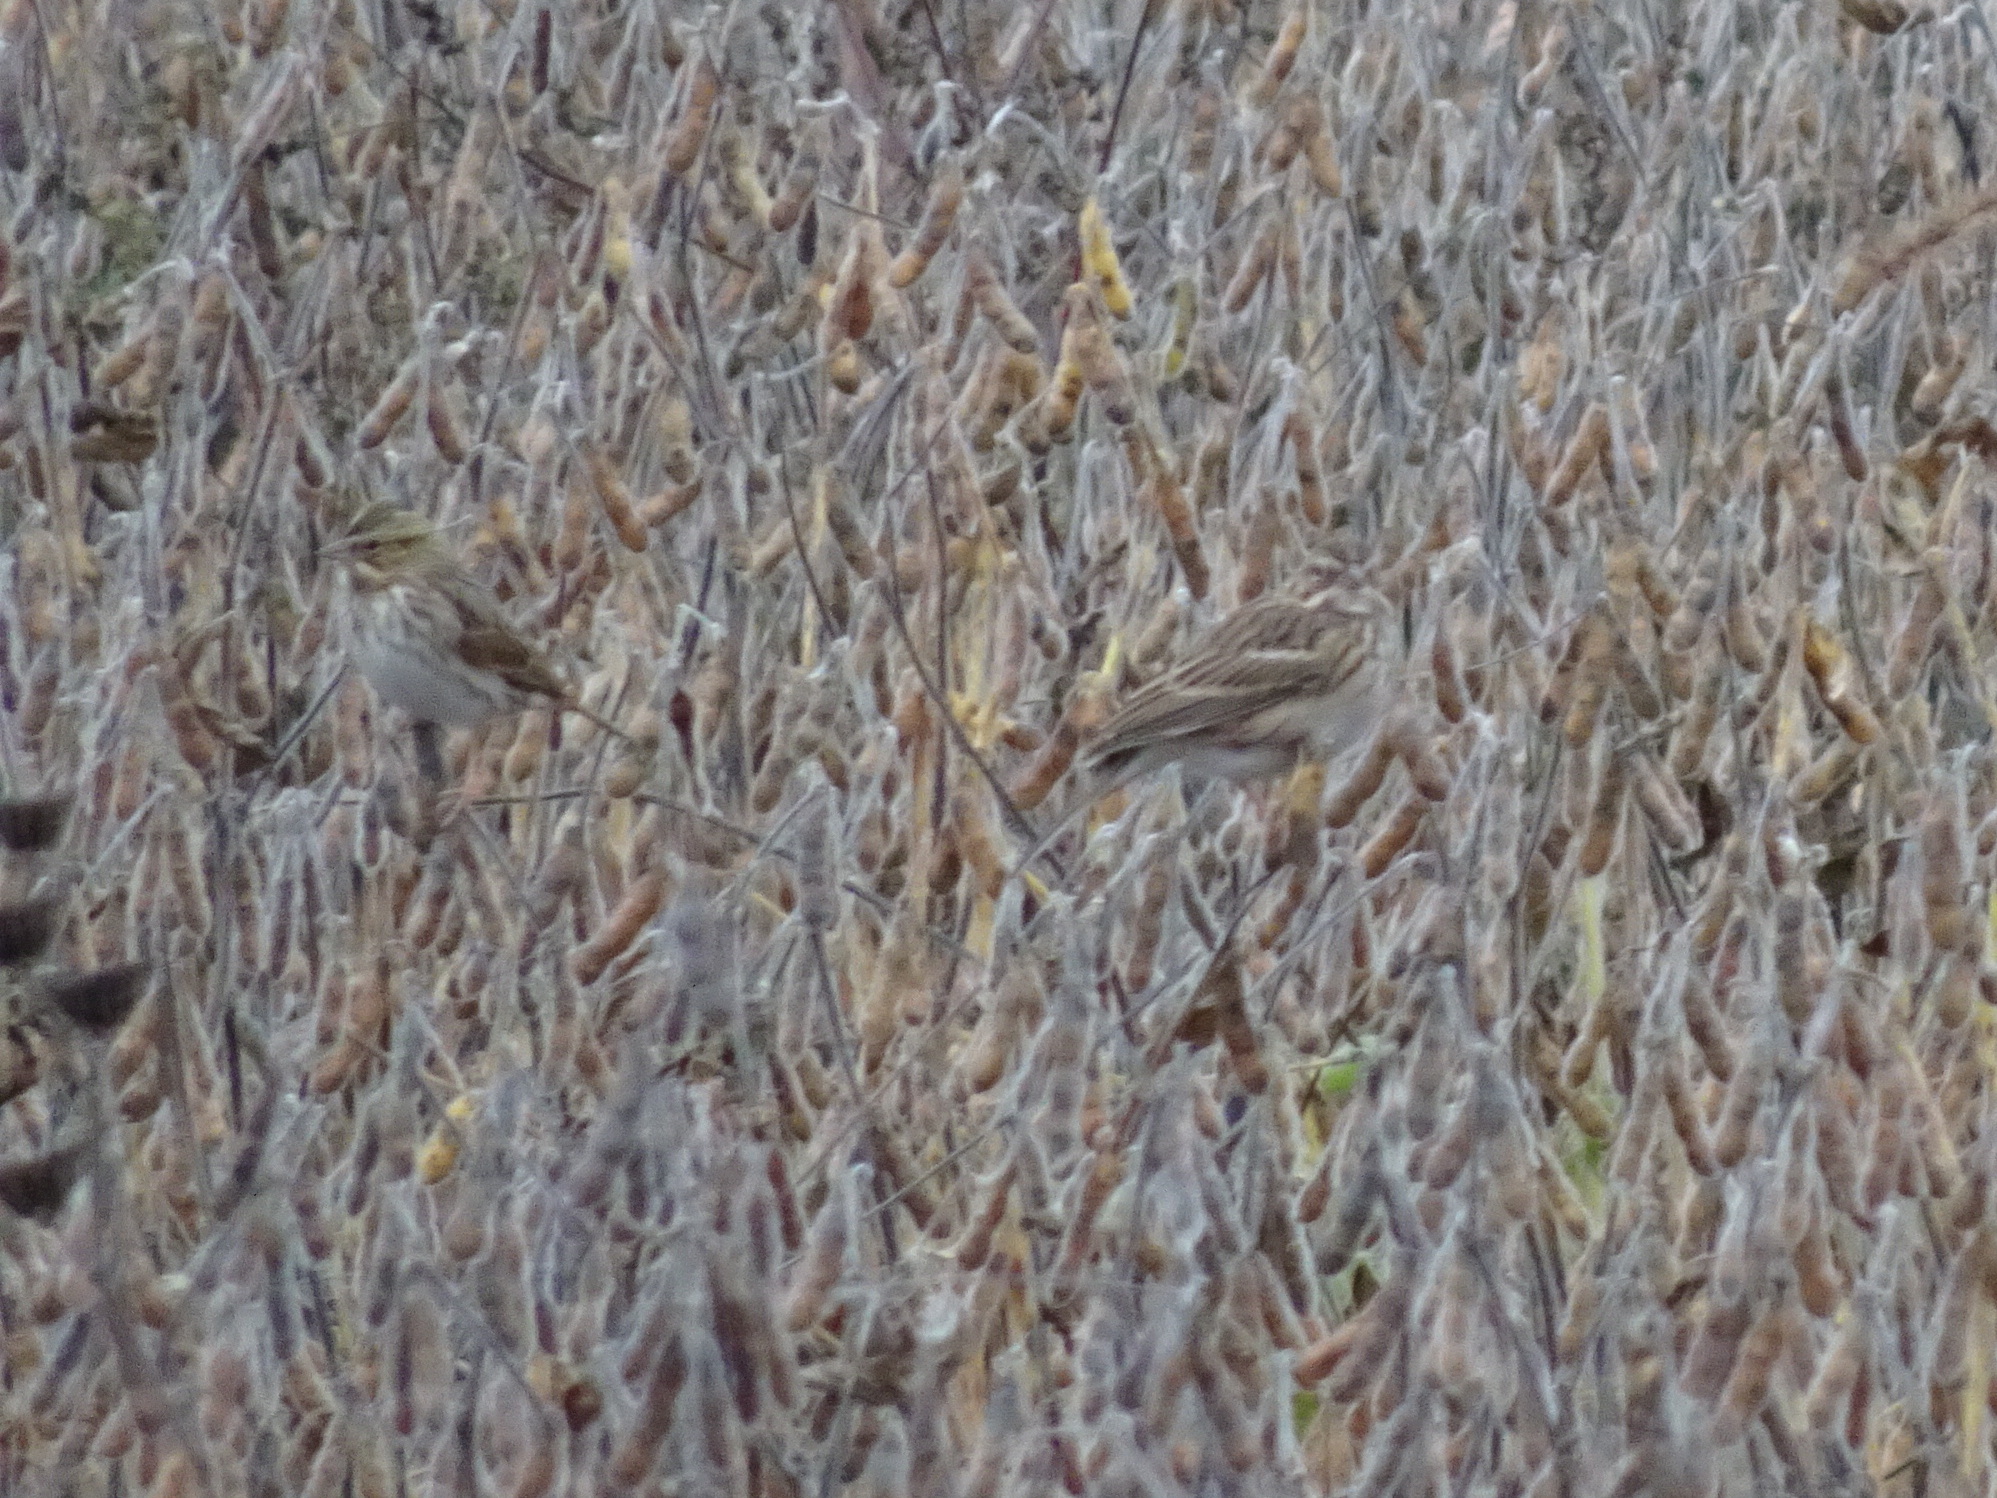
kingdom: Animalia
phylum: Chordata
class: Aves
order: Passeriformes
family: Passerellidae
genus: Passerculus
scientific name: Passerculus sandwichensis
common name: Savannah sparrow
